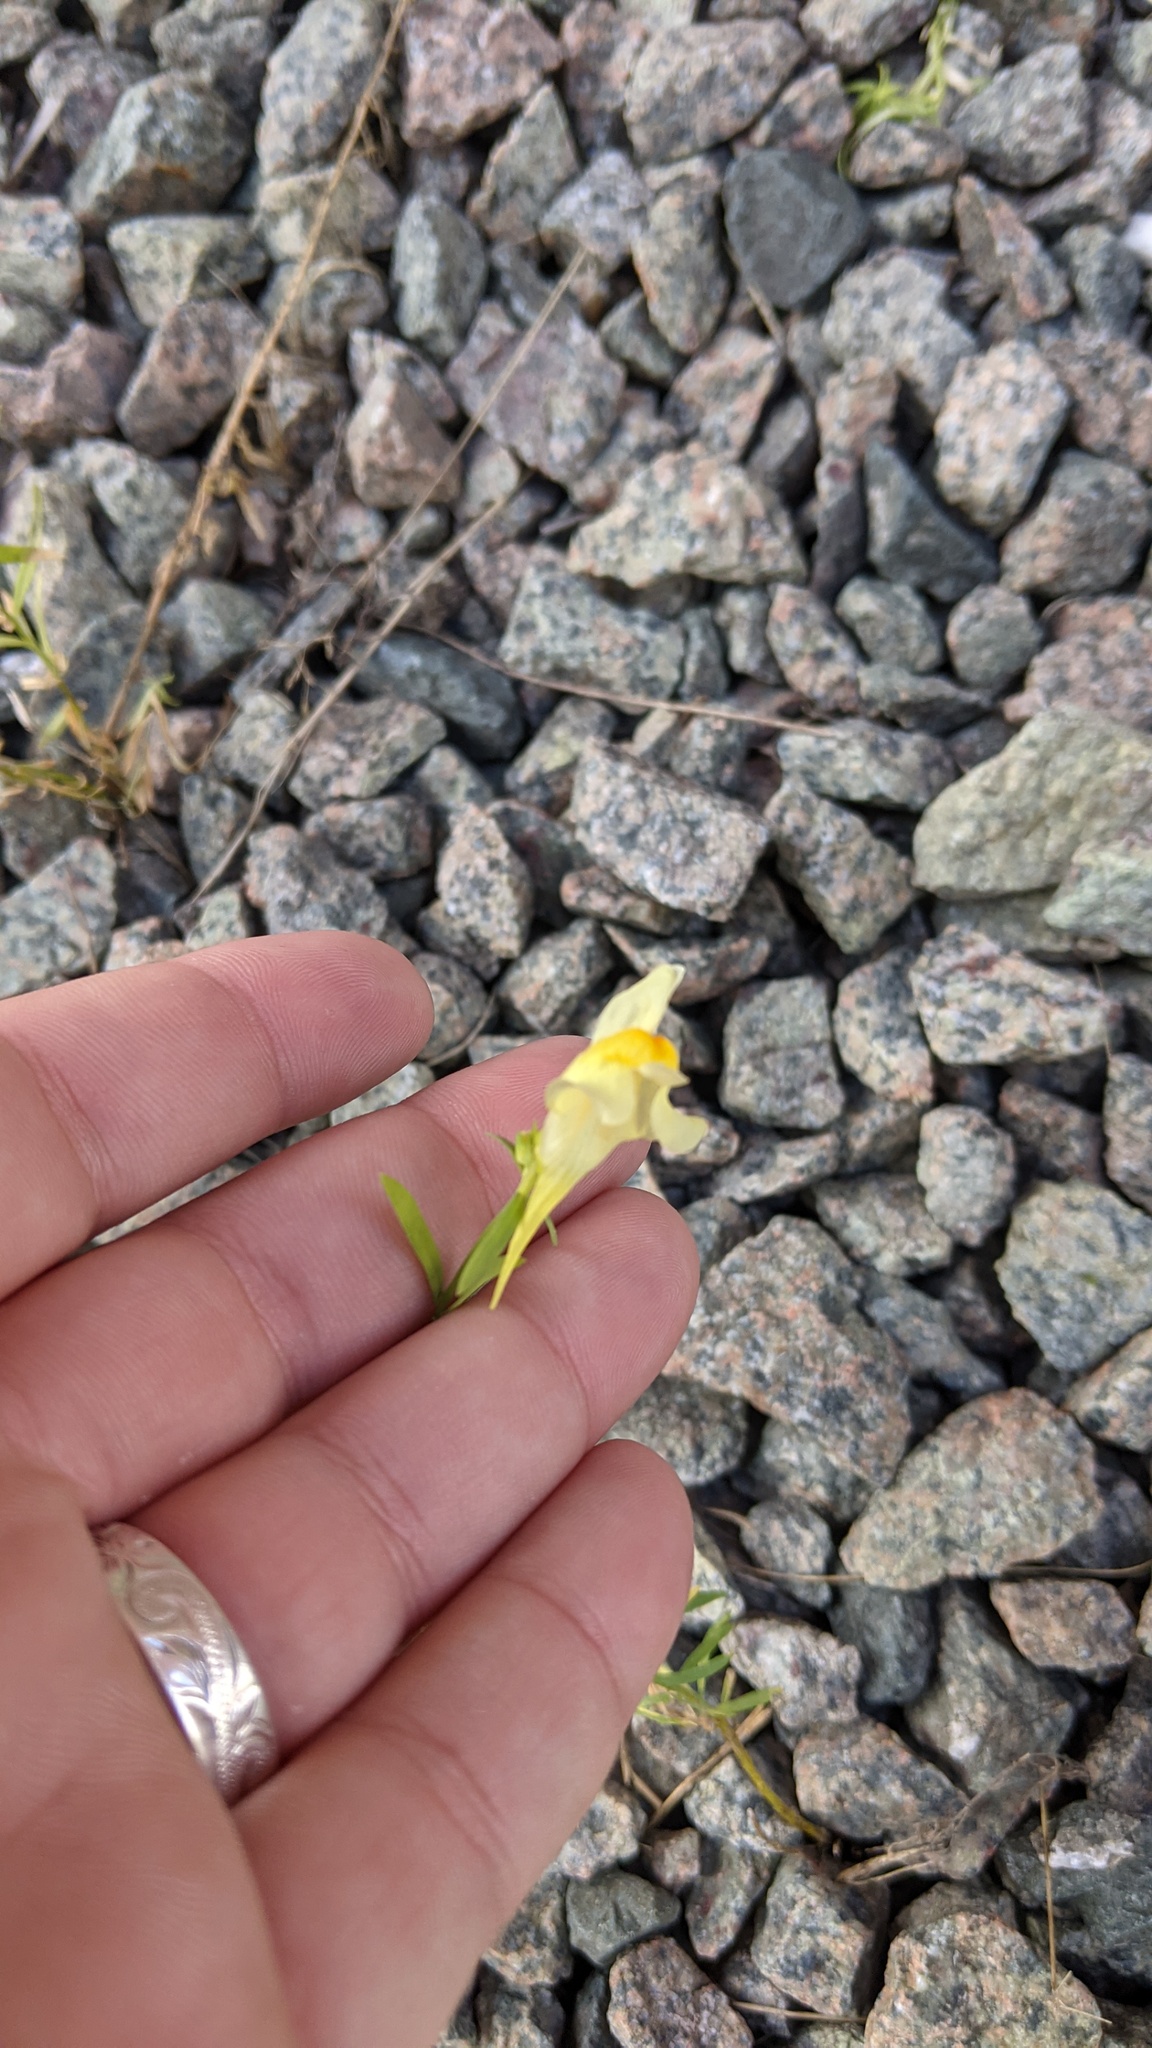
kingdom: Plantae
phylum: Tracheophyta
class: Magnoliopsida
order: Lamiales
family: Plantaginaceae
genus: Linaria
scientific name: Linaria vulgaris
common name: Butter and eggs
